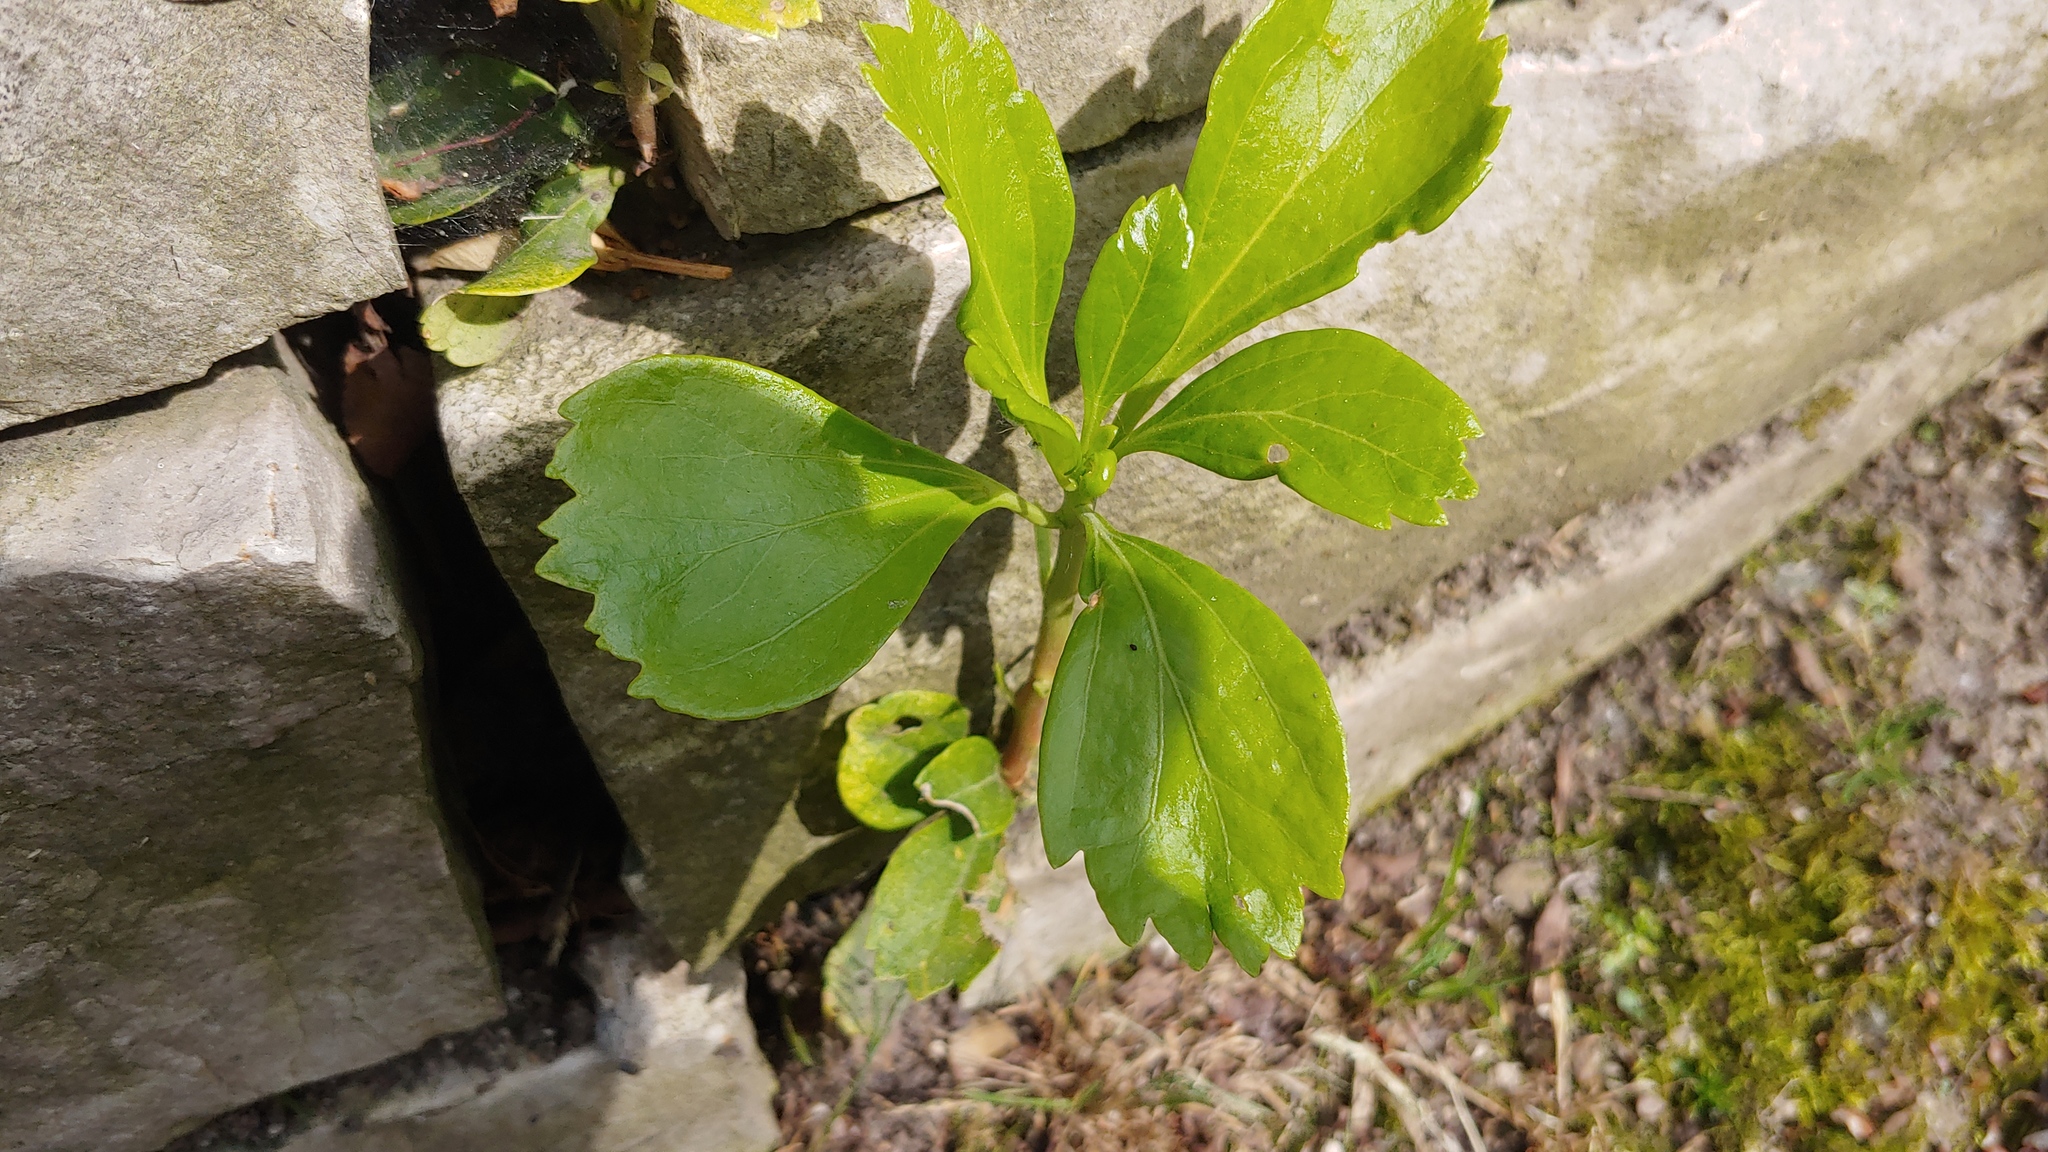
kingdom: Plantae
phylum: Tracheophyta
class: Magnoliopsida
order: Buxales
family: Buxaceae
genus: Pachysandra
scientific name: Pachysandra terminalis
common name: Japanese pachysandra
